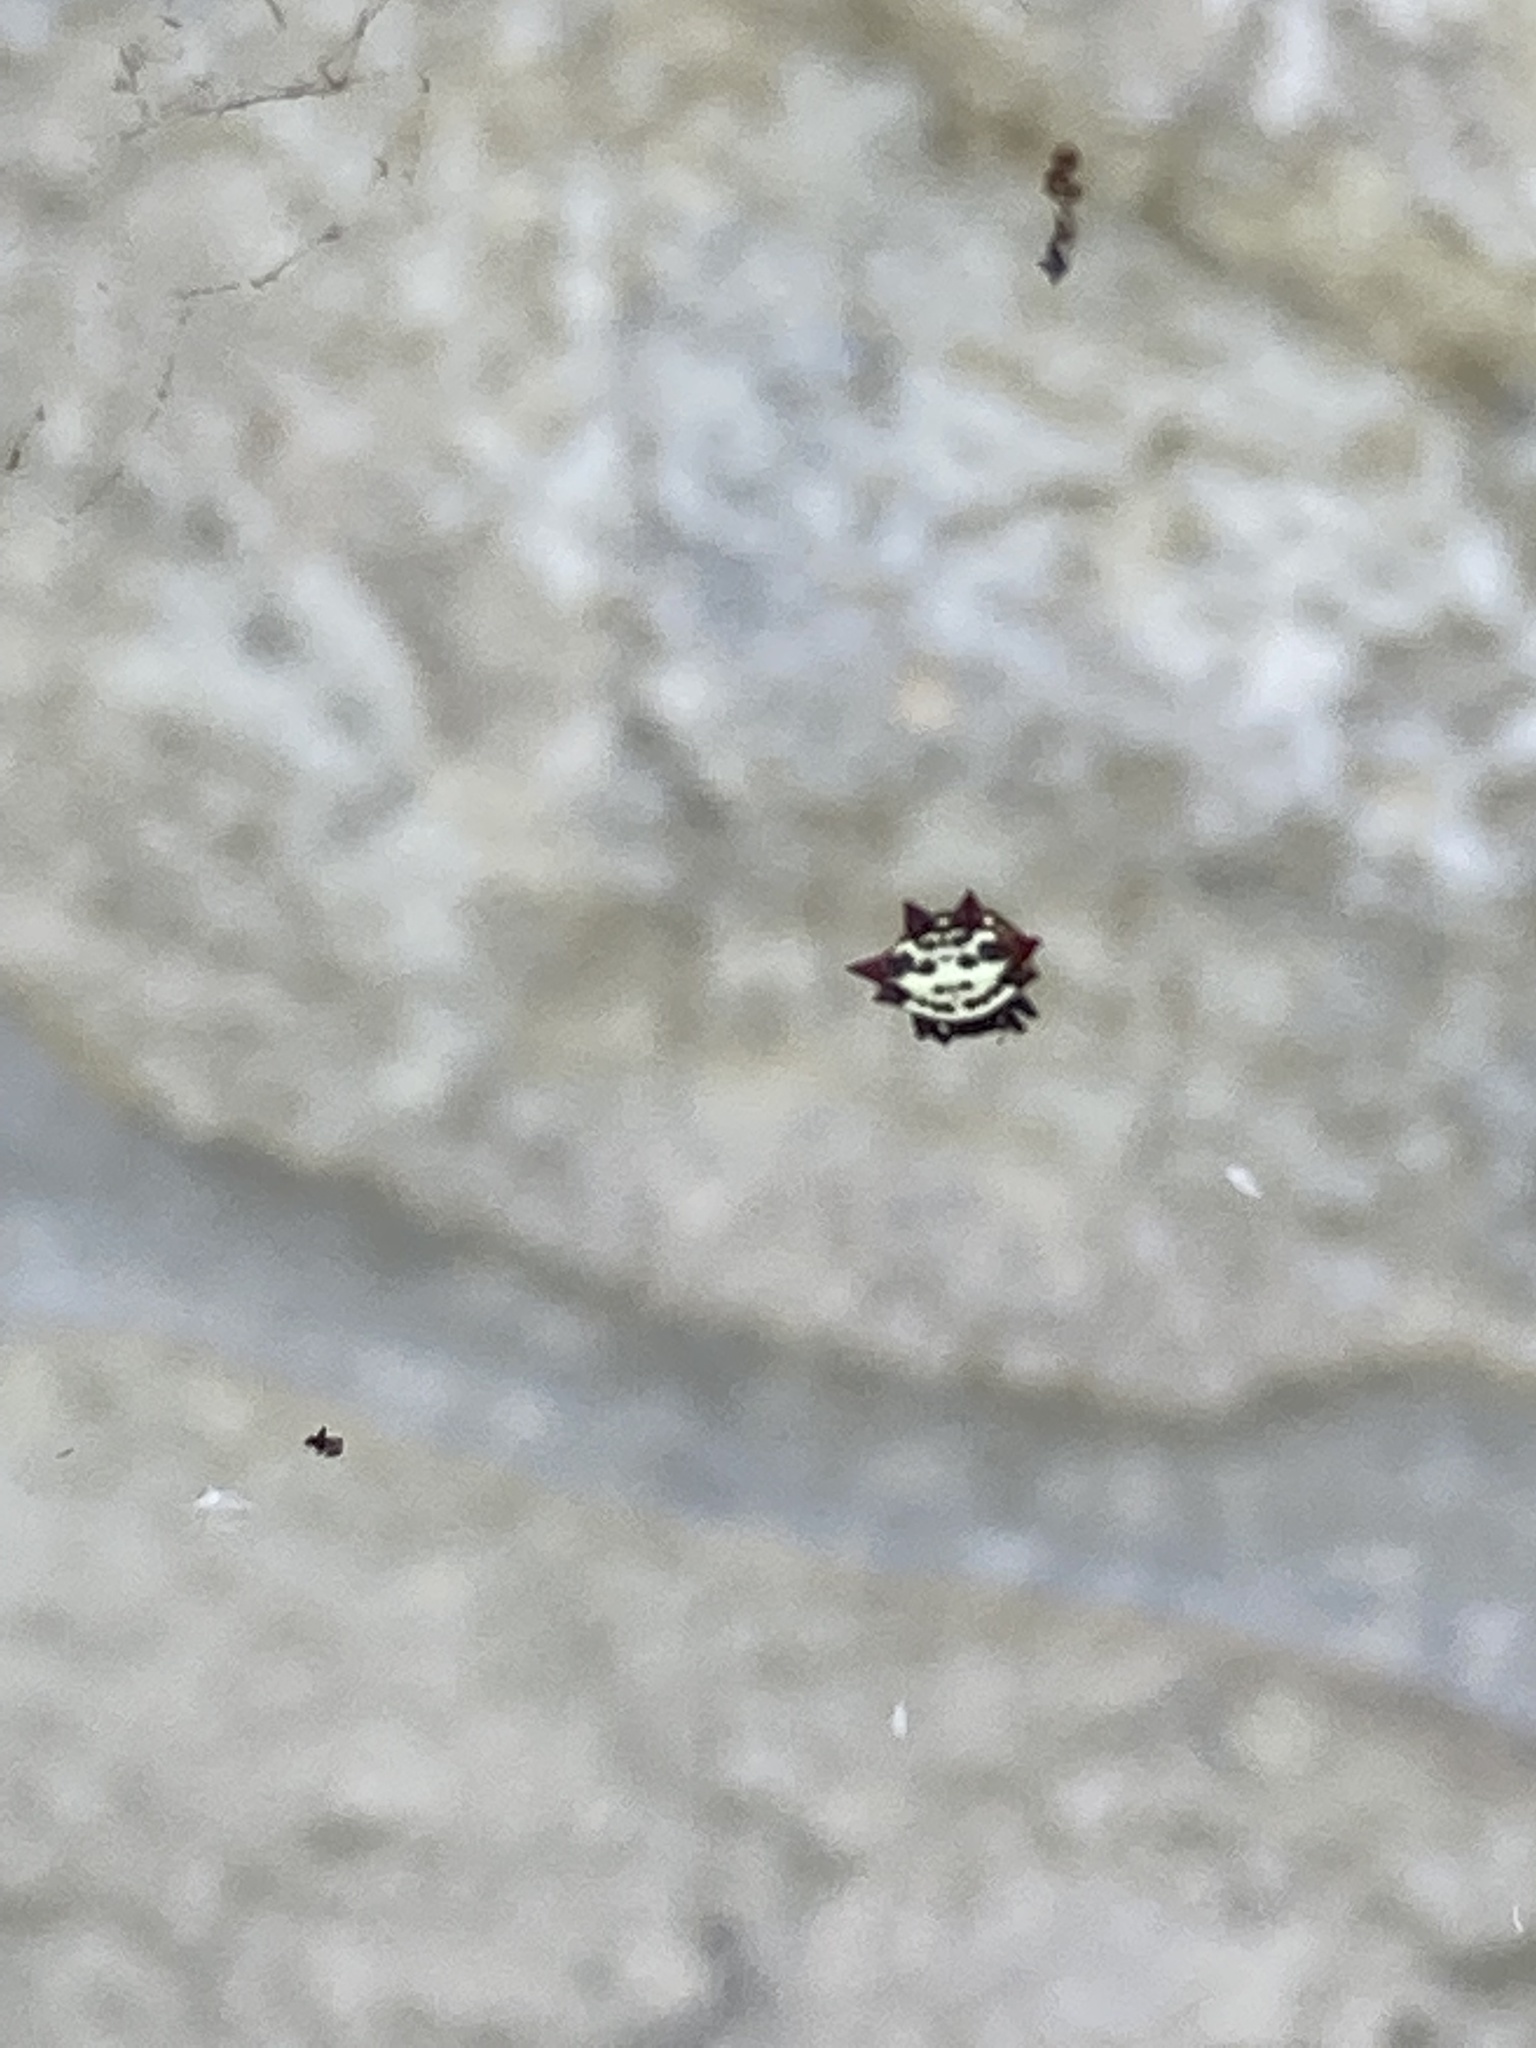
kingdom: Animalia
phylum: Arthropoda
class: Arachnida
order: Araneae
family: Araneidae
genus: Gasteracantha
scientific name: Gasteracantha cancriformis
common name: Orb weavers
